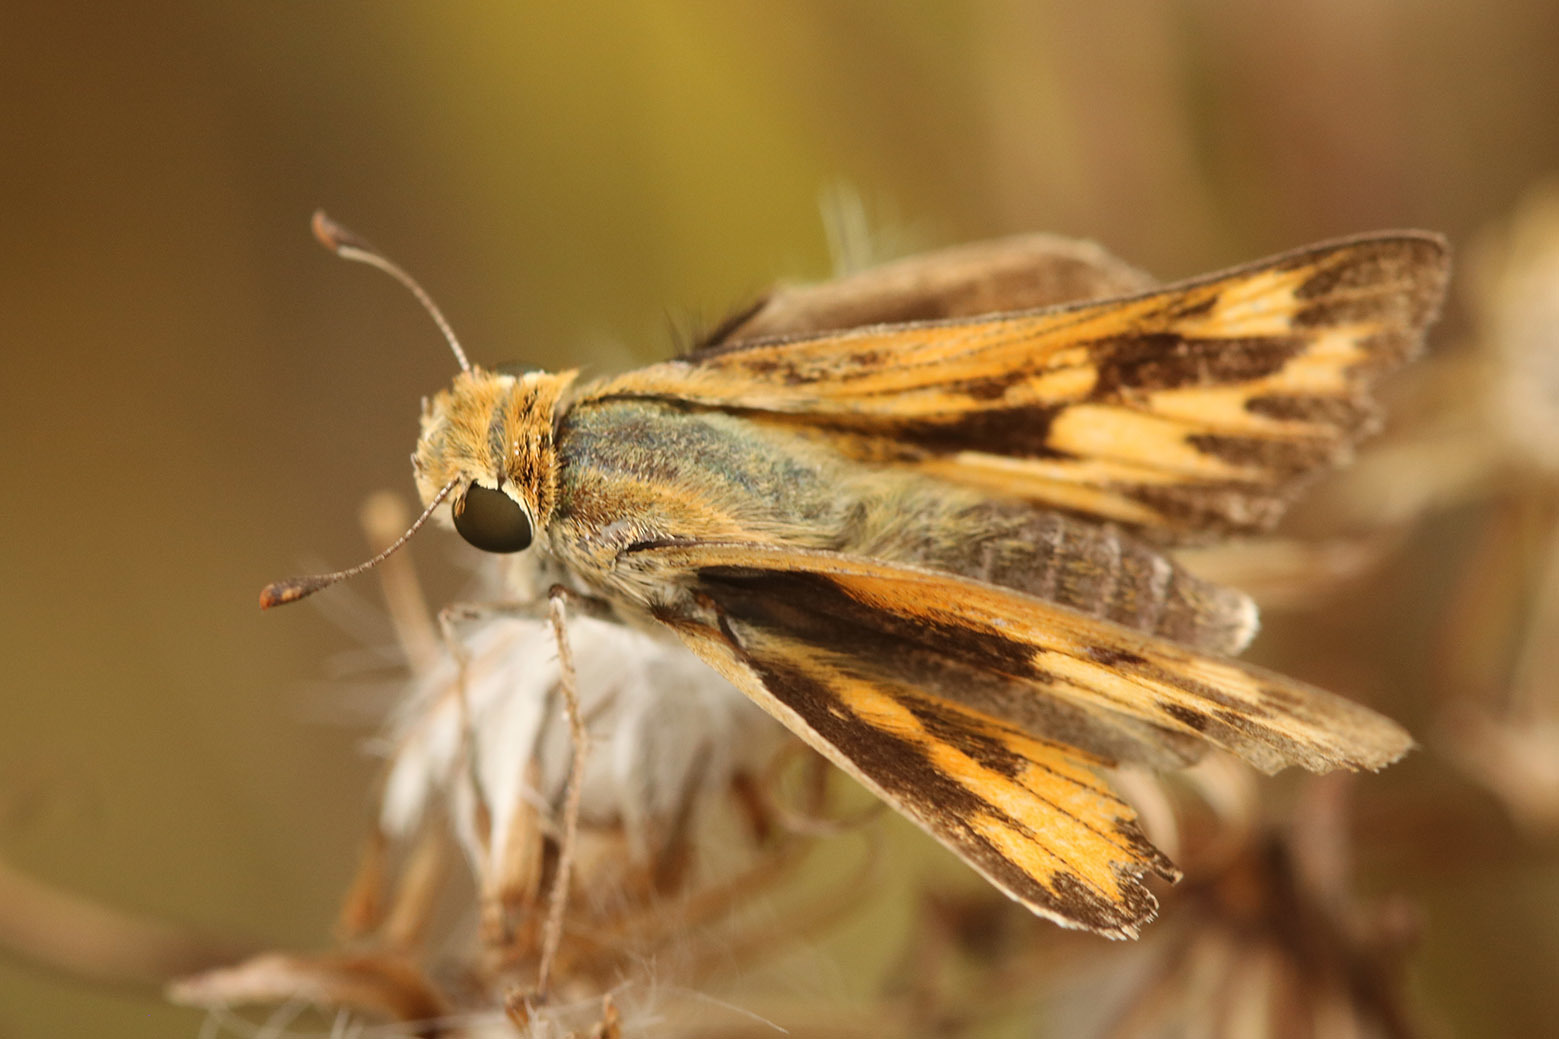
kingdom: Animalia
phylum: Arthropoda
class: Insecta
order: Lepidoptera
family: Hesperiidae
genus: Hylephila
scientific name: Hylephila phyleus
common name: Fiery skipper
